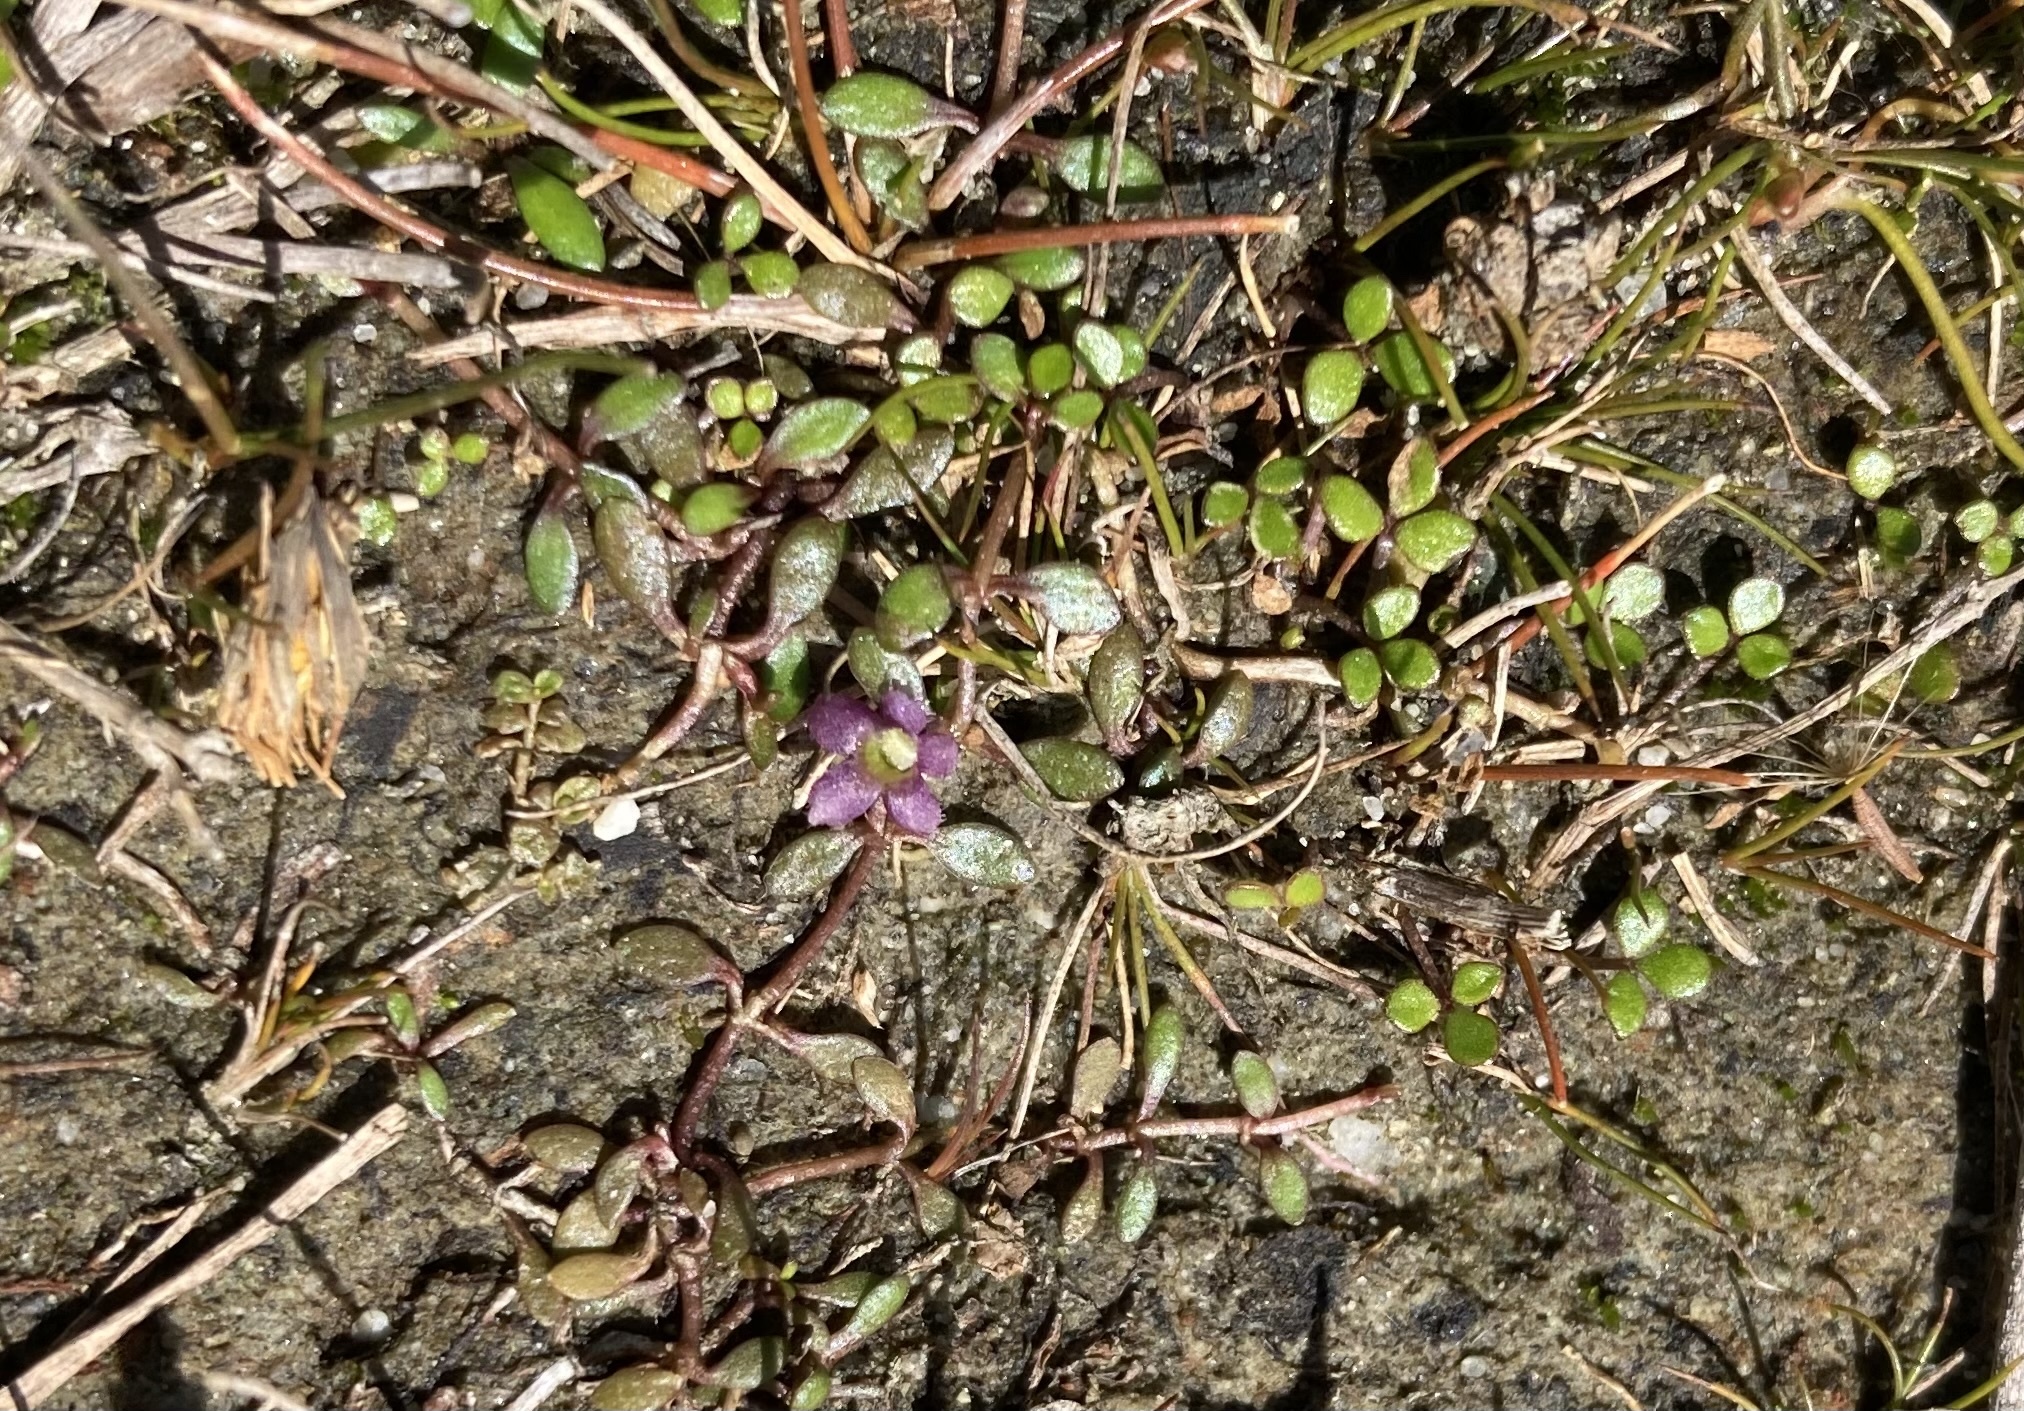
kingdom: Plantae
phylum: Tracheophyta
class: Magnoliopsida
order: Lamiales
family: Phrymaceae
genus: Glossostigma
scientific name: Glossostigma elatinoides
